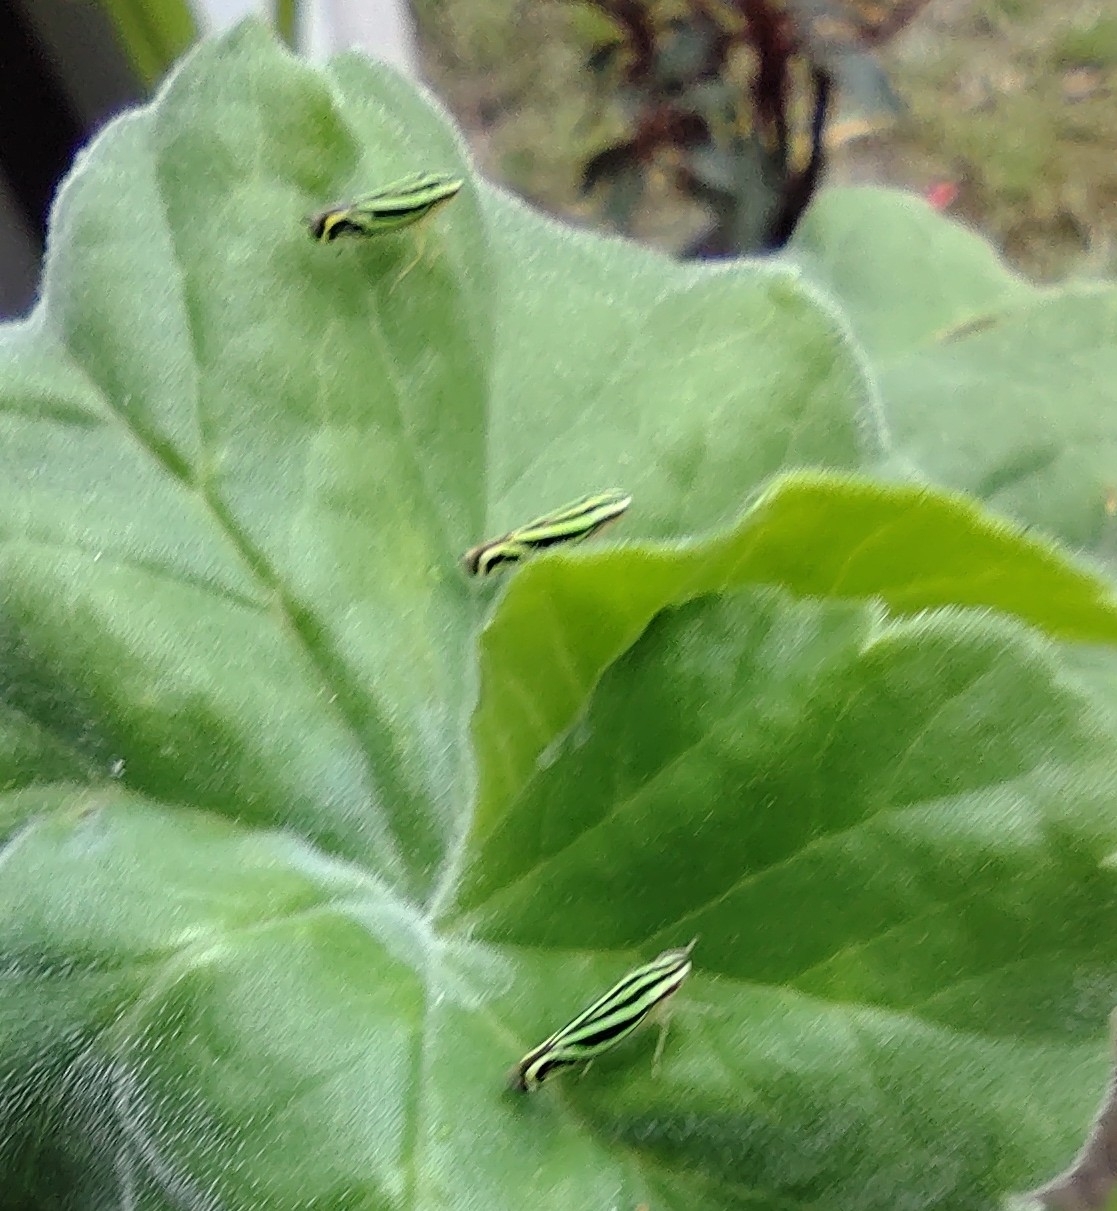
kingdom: Animalia
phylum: Arthropoda
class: Insecta
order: Hemiptera
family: Cicadellidae
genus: Sibovia
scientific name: Sibovia sagata
